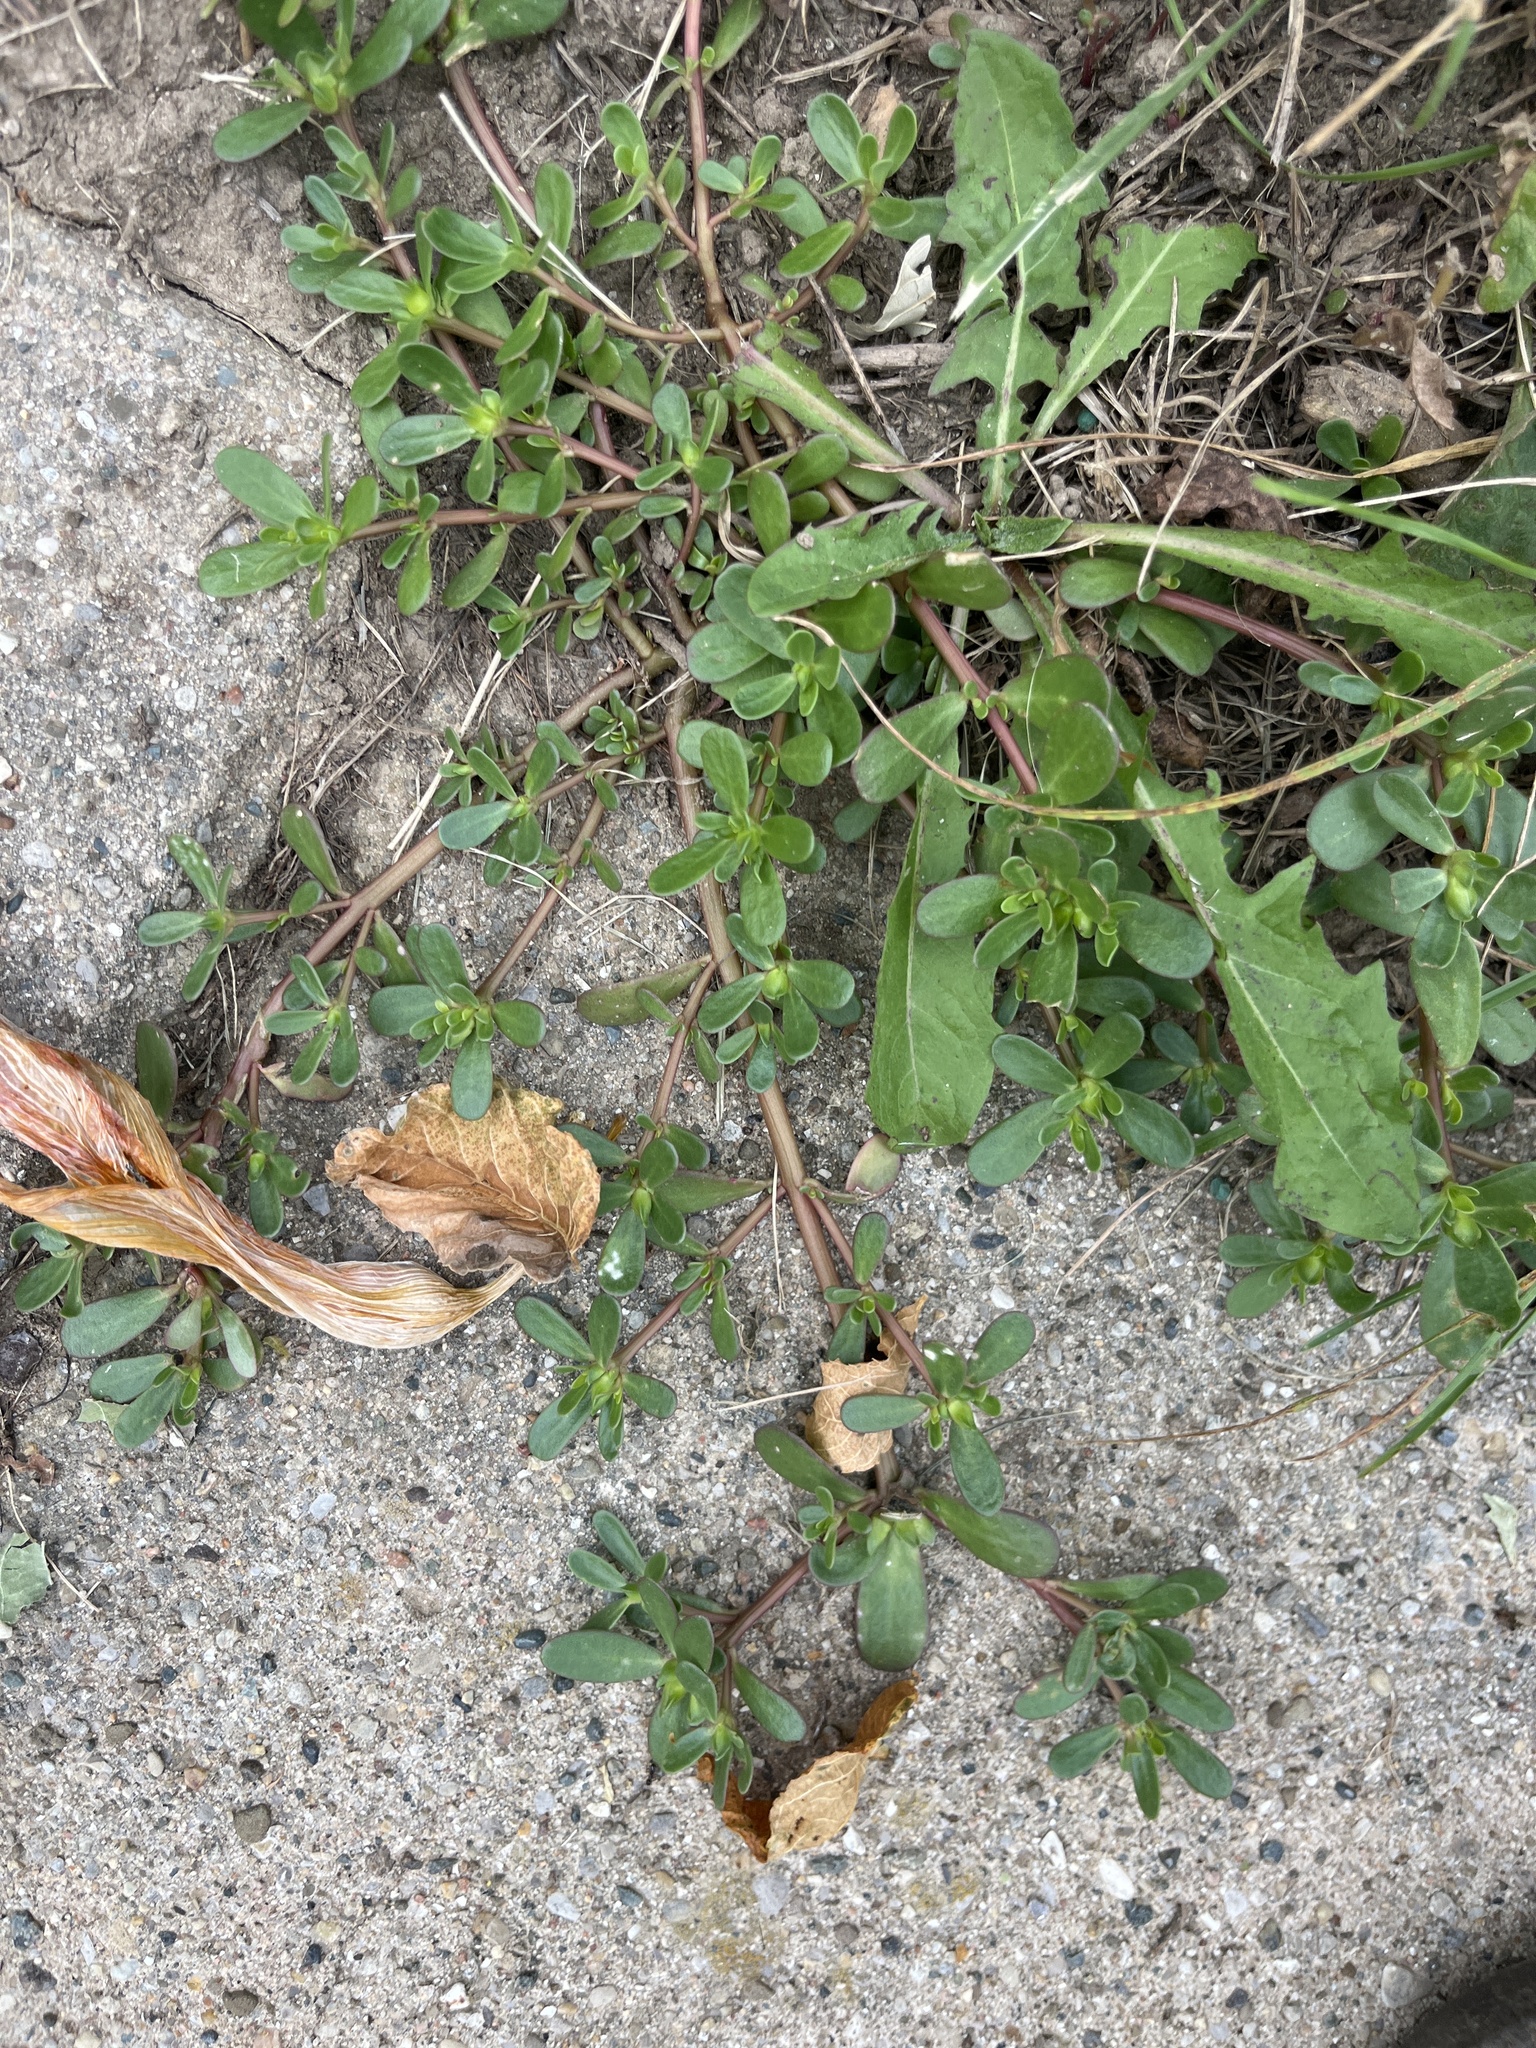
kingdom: Plantae
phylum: Tracheophyta
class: Magnoliopsida
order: Caryophyllales
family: Portulacaceae
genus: Portulaca
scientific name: Portulaca oleracea
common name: Common purslane
